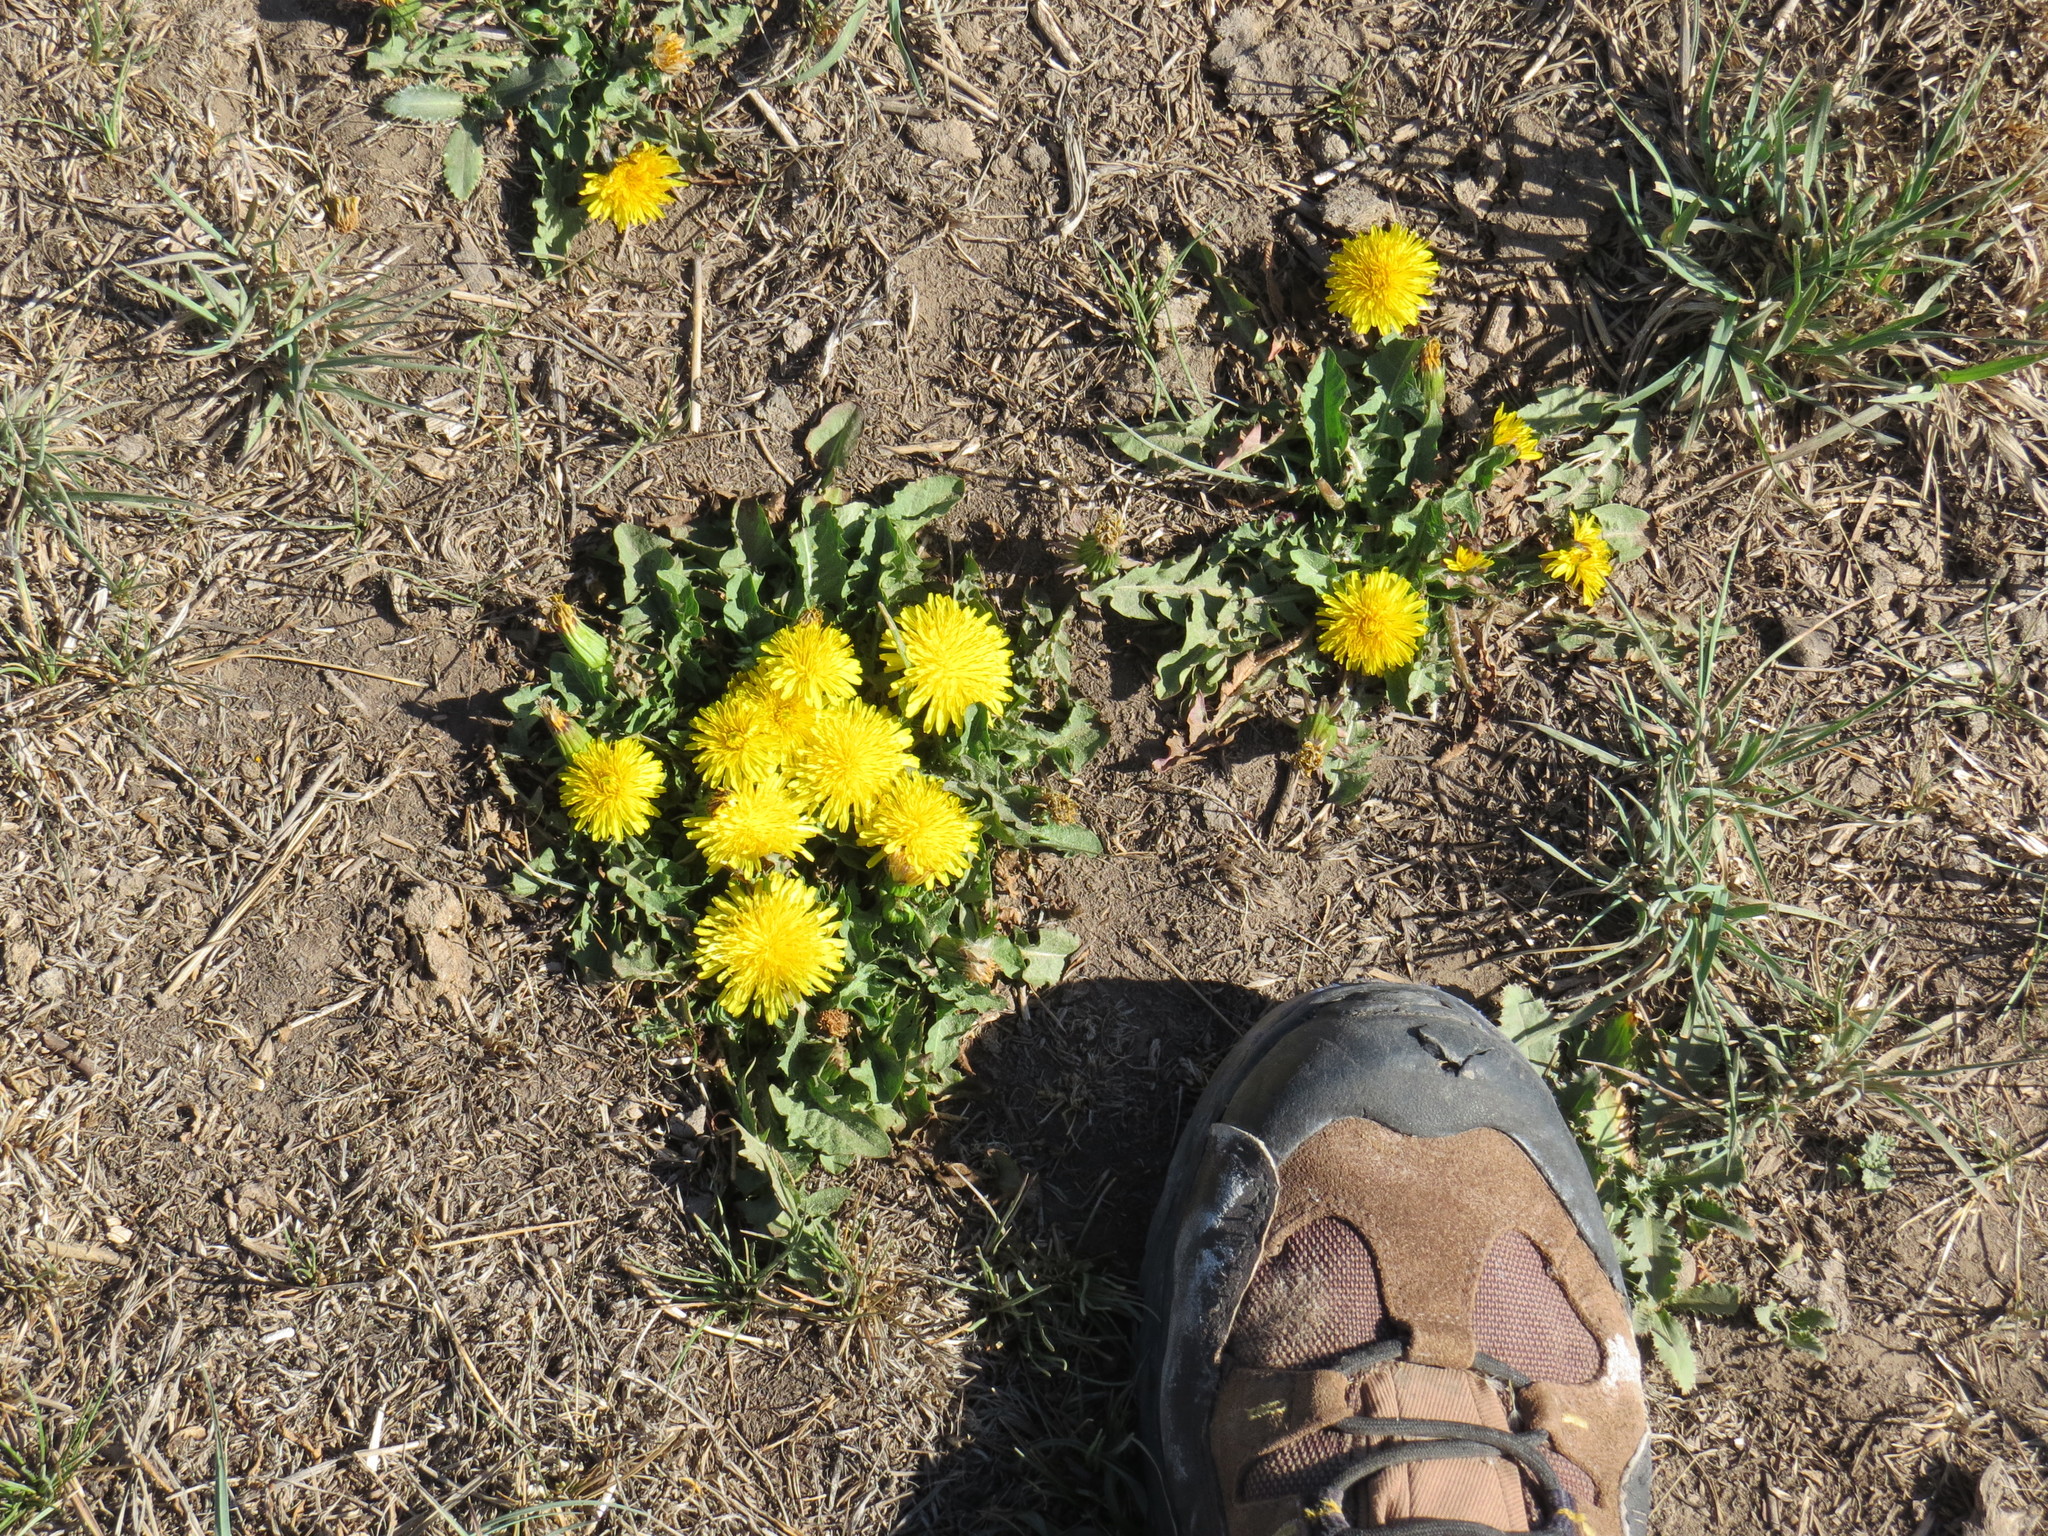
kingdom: Plantae
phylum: Tracheophyta
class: Magnoliopsida
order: Asterales
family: Asteraceae
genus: Taraxacum
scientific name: Taraxacum officinale
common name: Common dandelion
